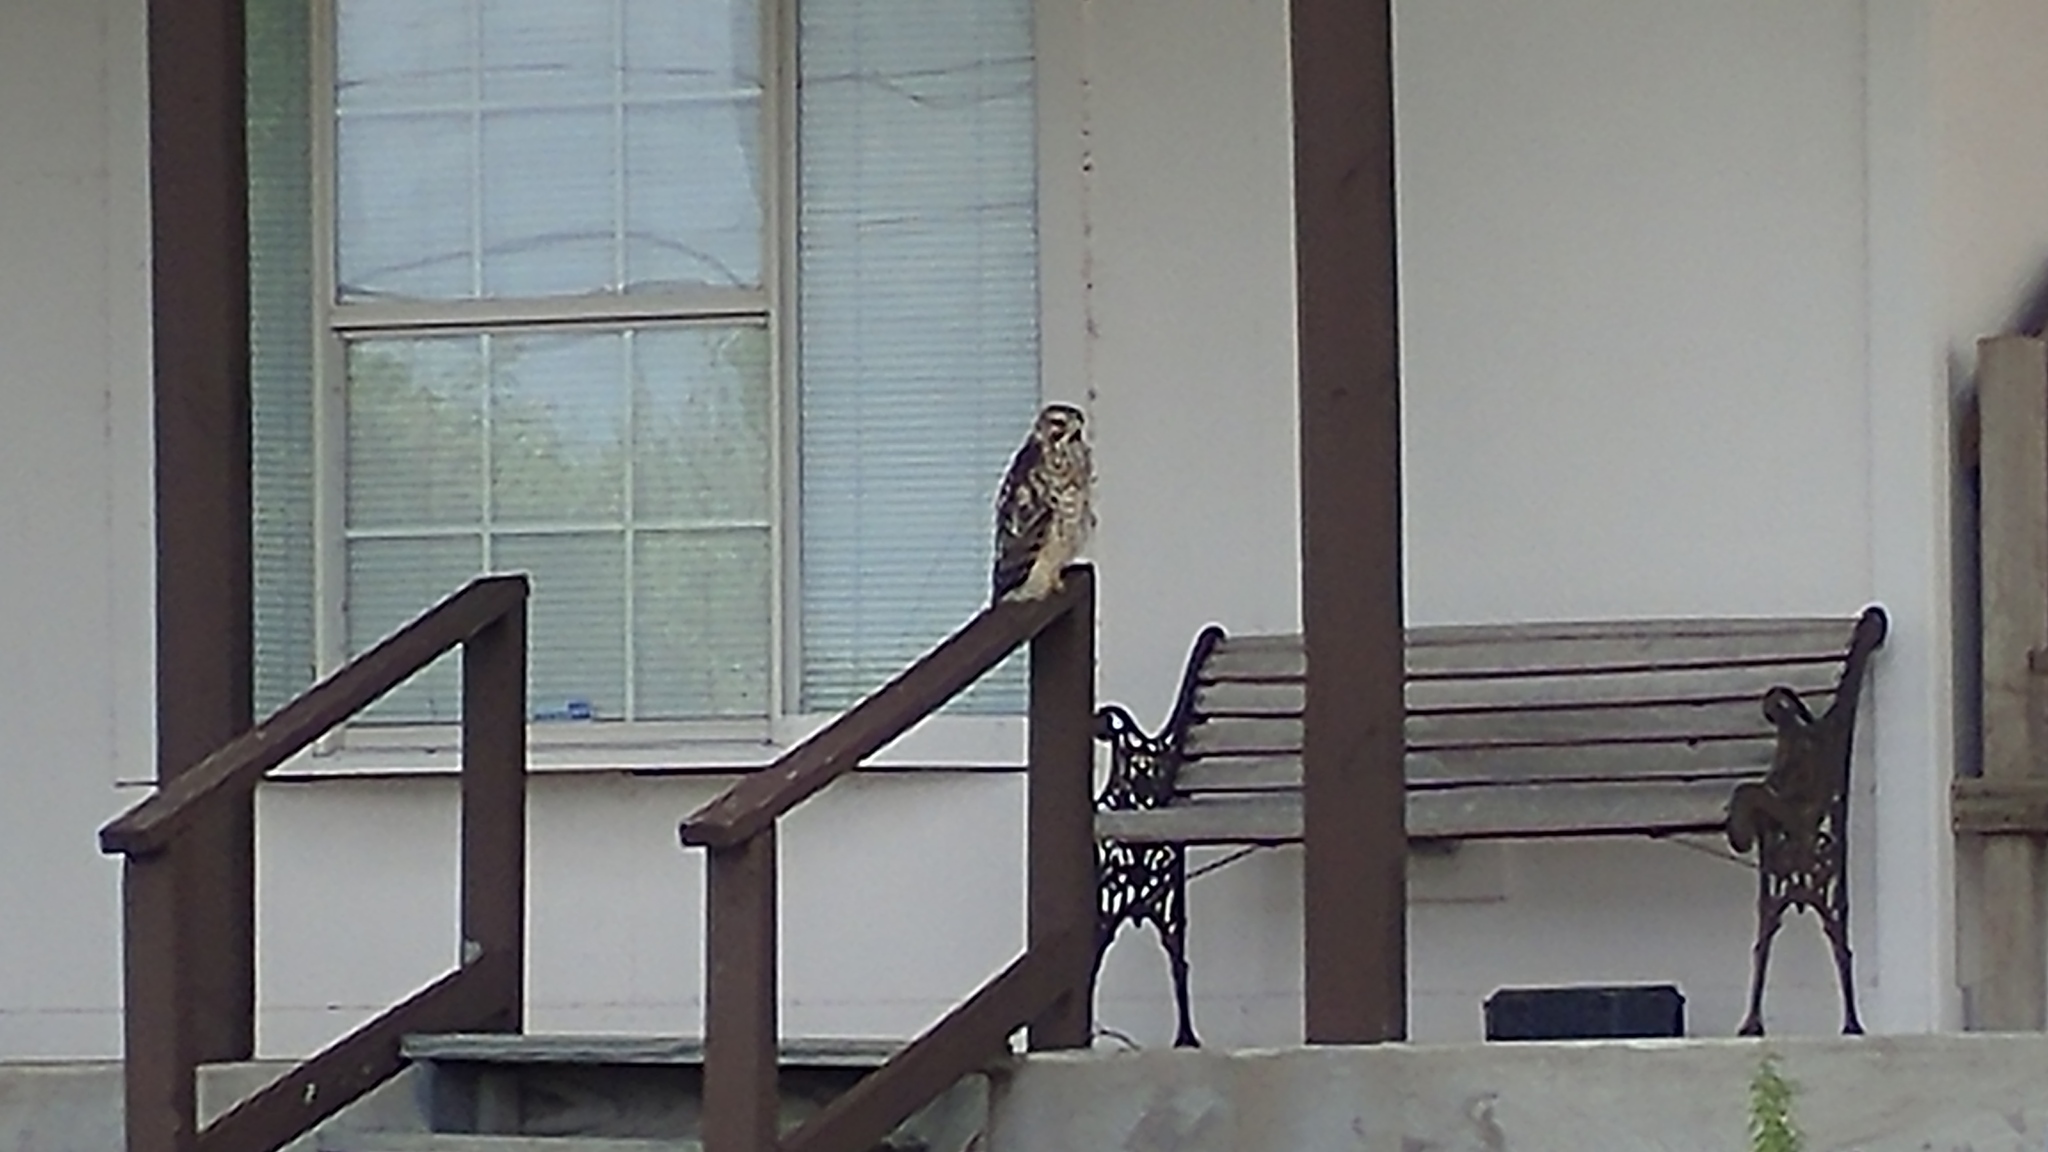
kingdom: Animalia
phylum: Chordata
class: Aves
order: Accipitriformes
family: Accipitridae
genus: Buteo
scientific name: Buteo lineatus
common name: Red-shouldered hawk
